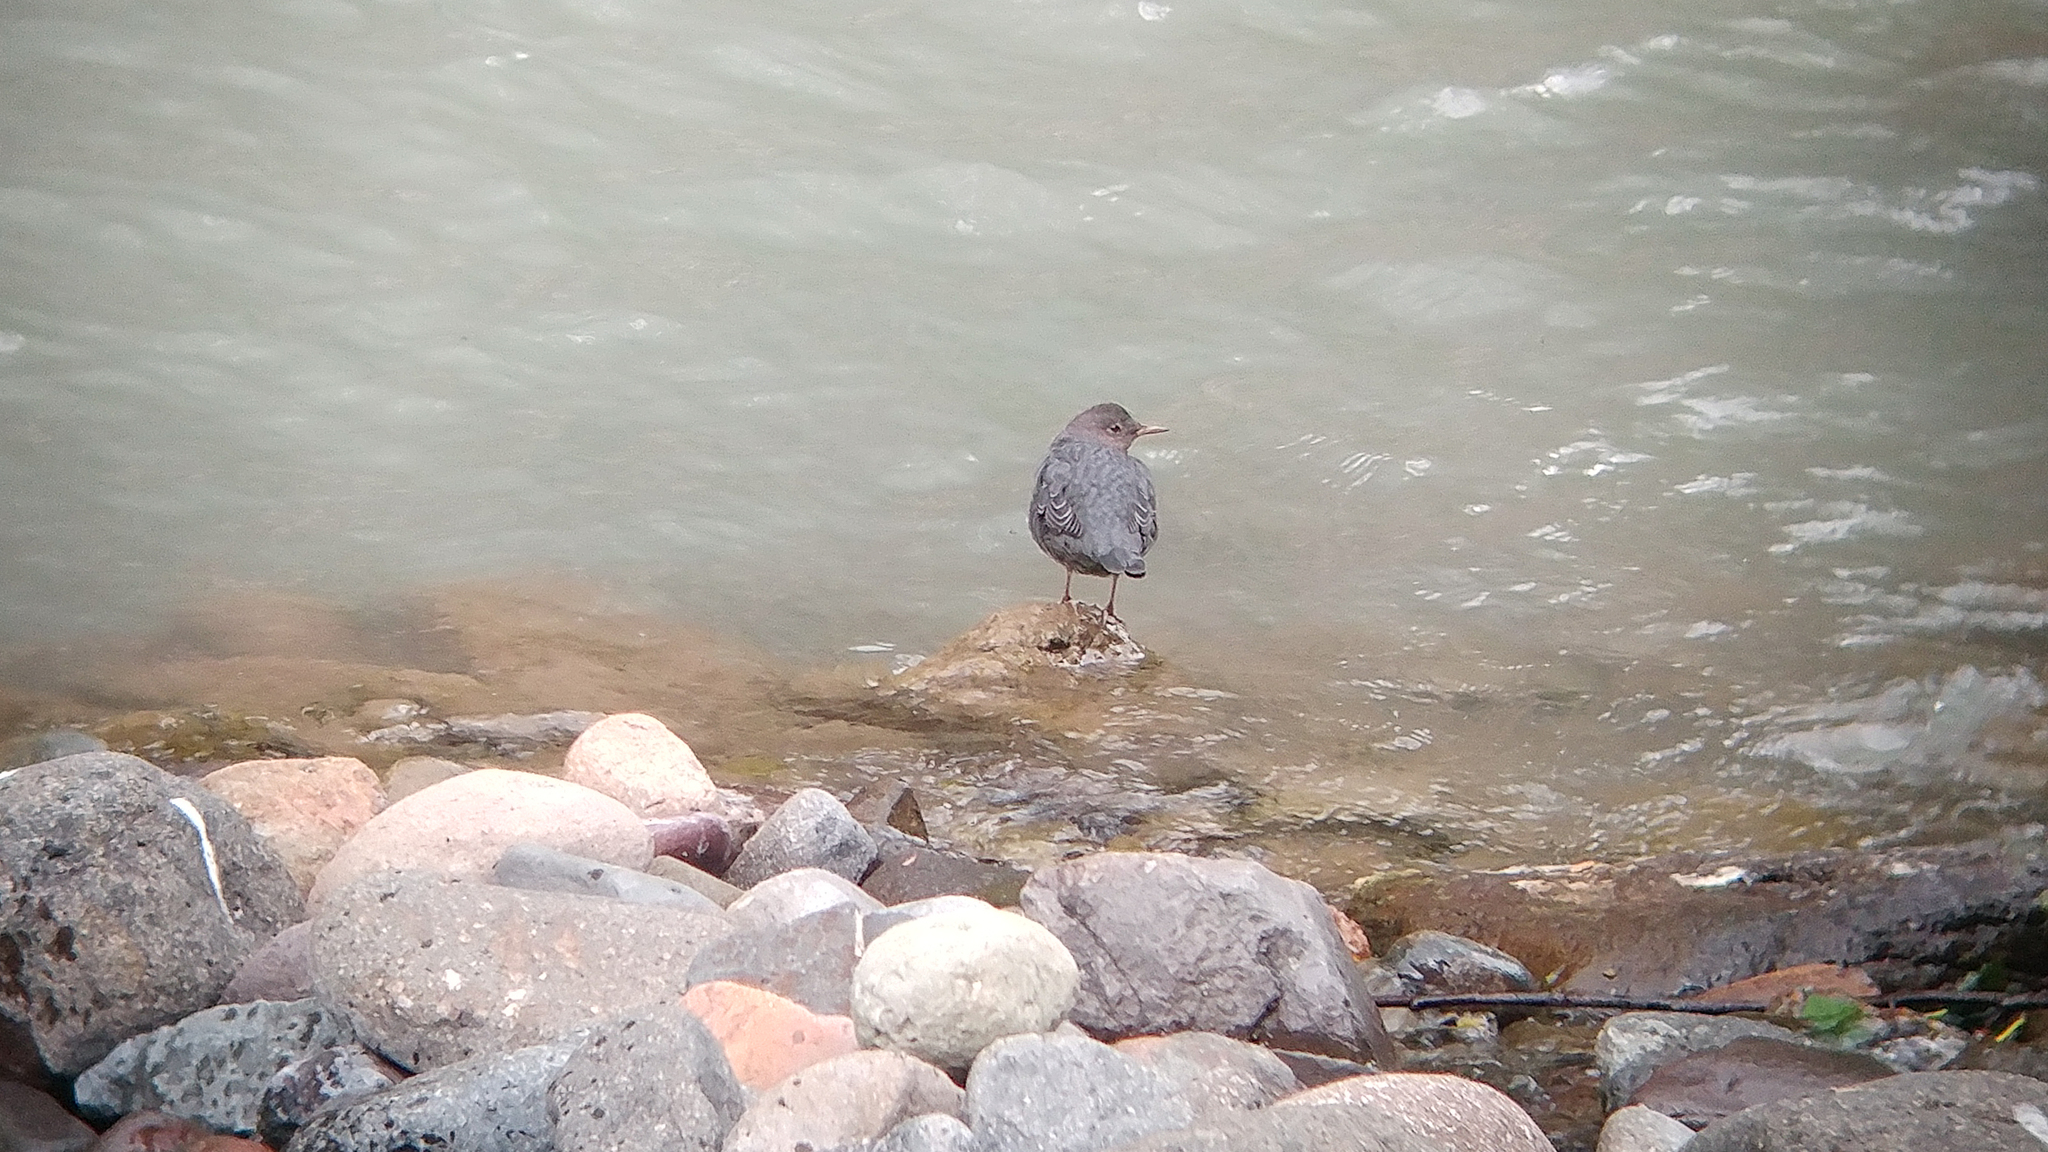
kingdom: Animalia
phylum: Chordata
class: Aves
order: Passeriformes
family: Cinclidae
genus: Cinclus
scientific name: Cinclus mexicanus
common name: American dipper
